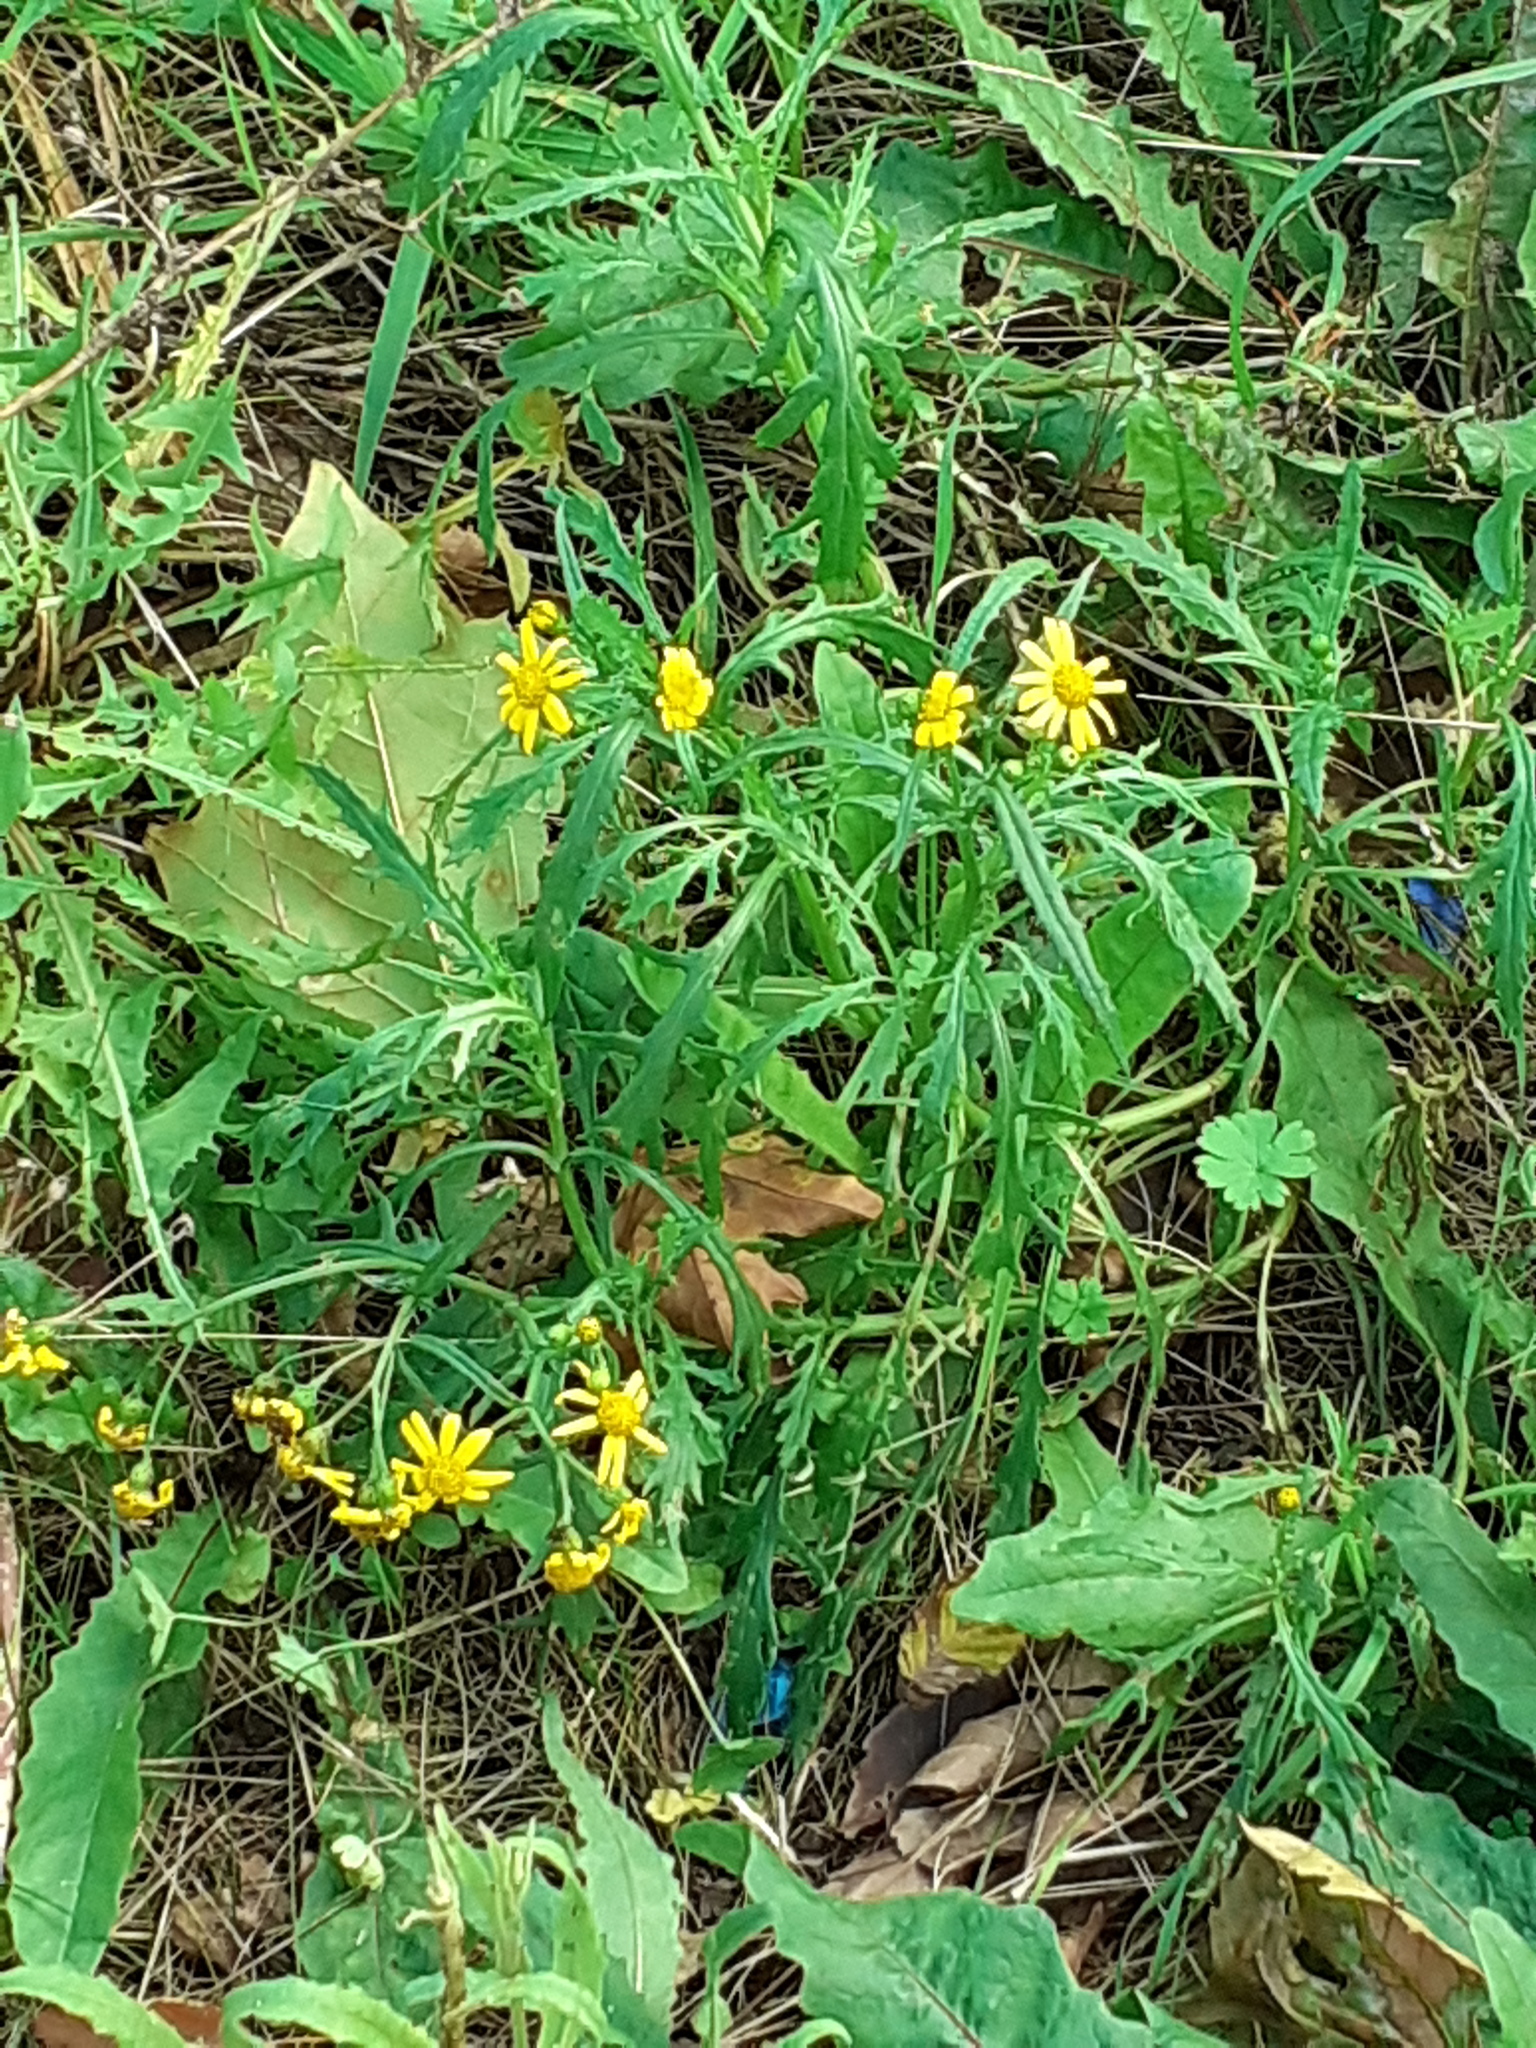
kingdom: Plantae
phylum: Tracheophyta
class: Magnoliopsida
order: Asterales
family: Asteraceae
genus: Senecio
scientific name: Senecio squalidus
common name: Oxford ragwort
